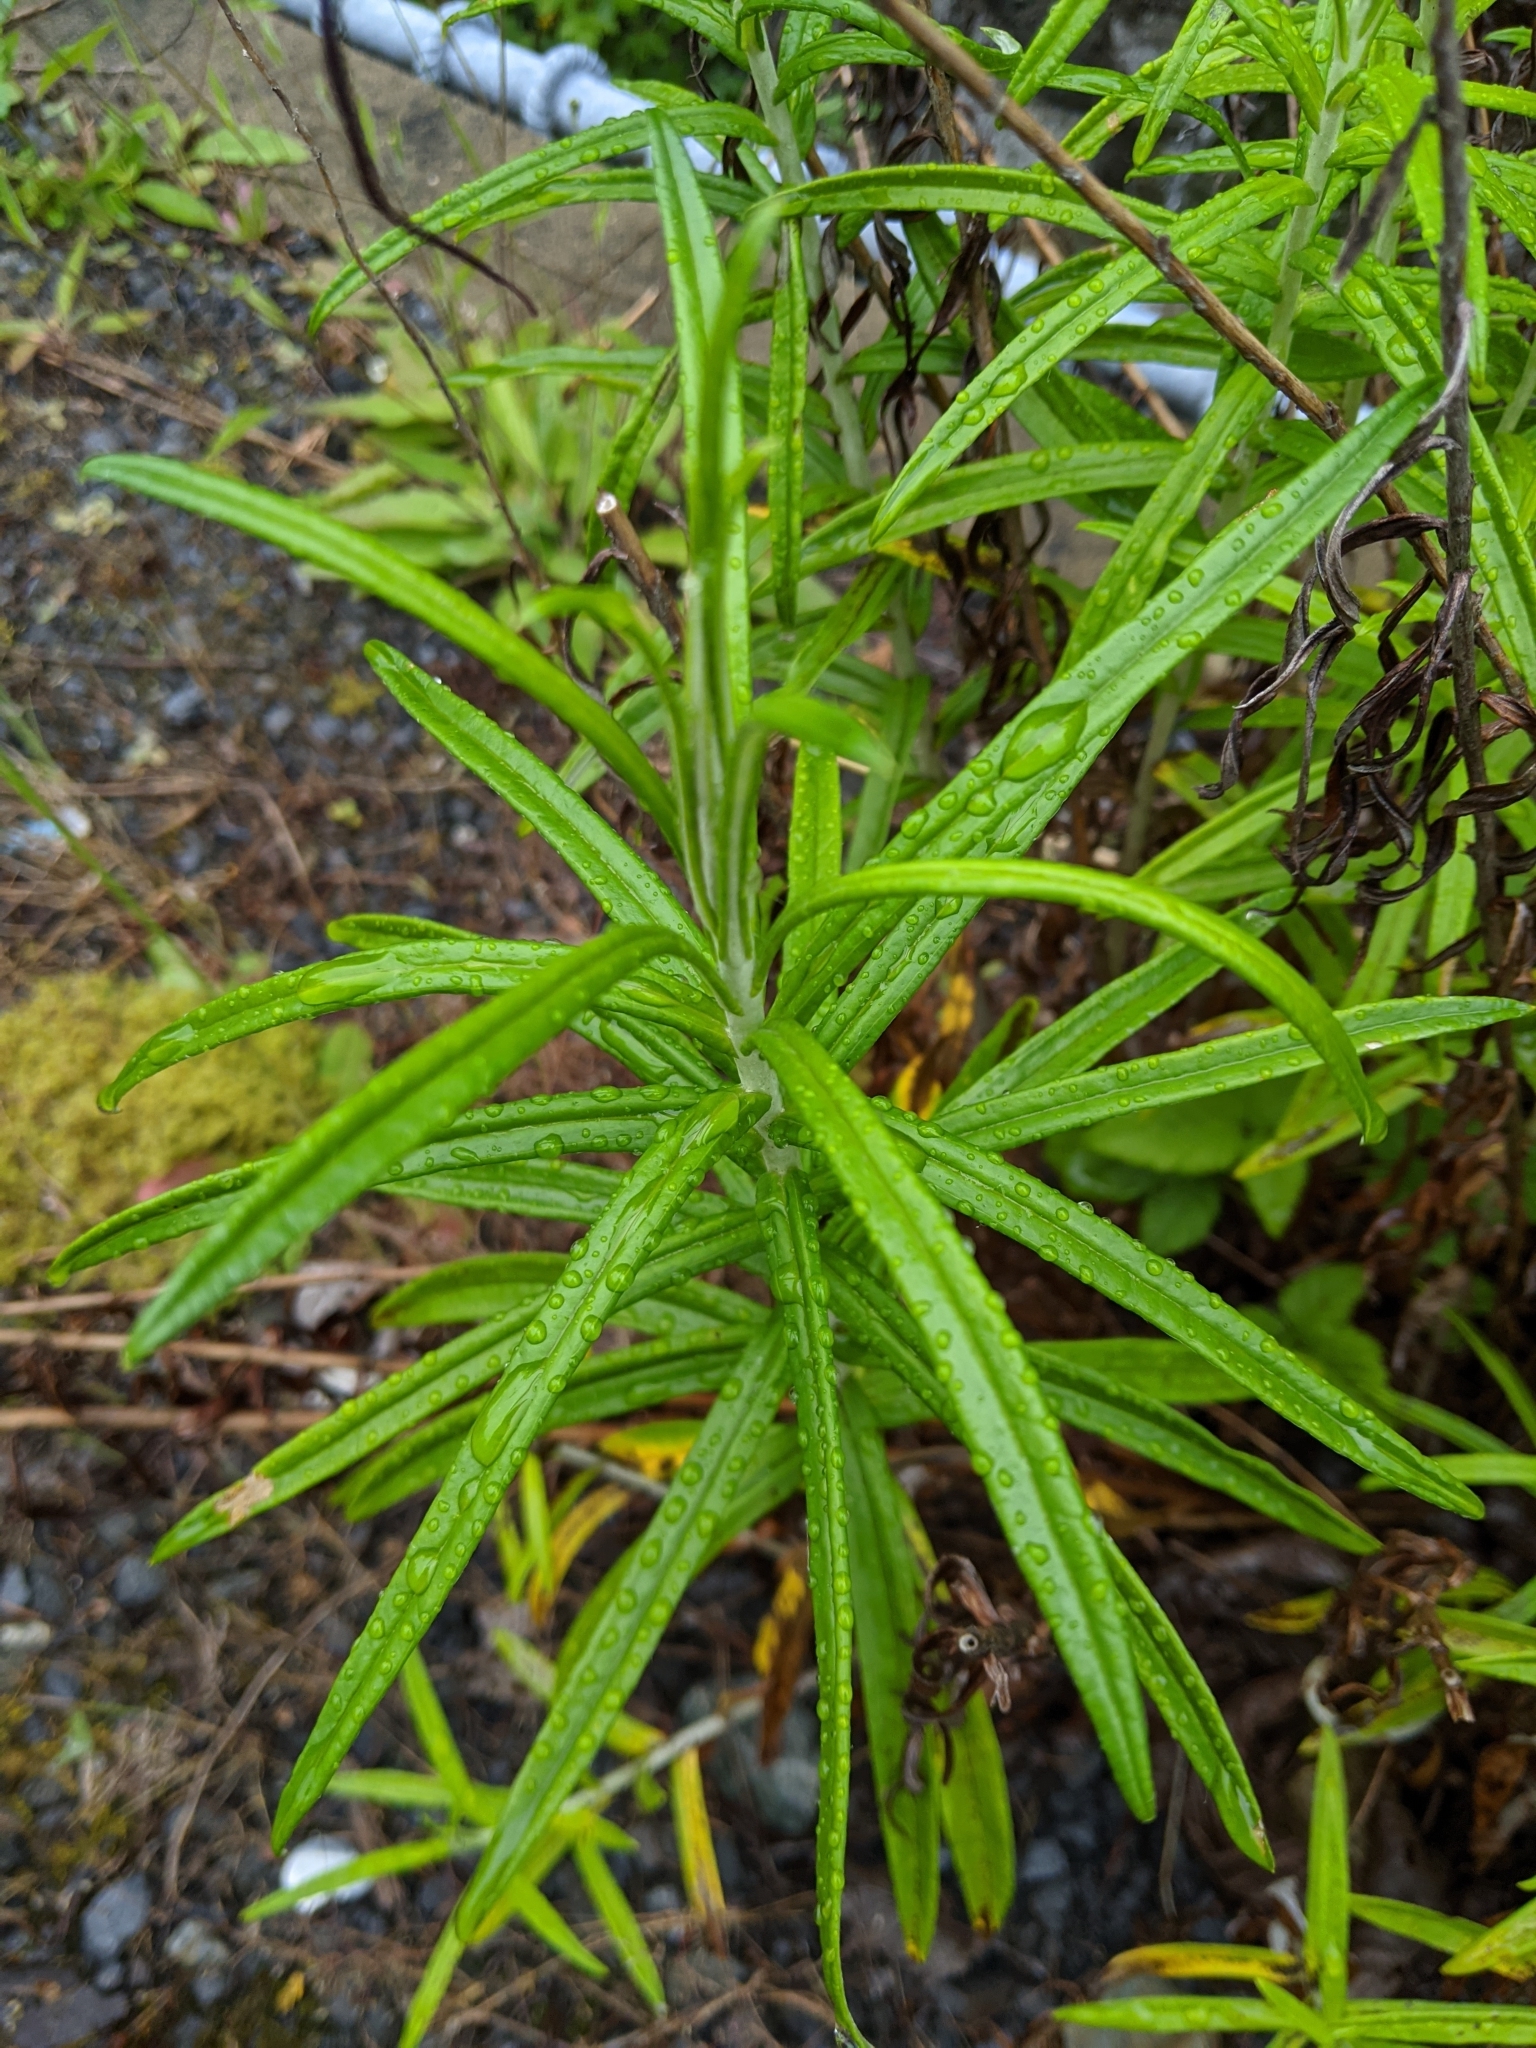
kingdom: Plantae
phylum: Tracheophyta
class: Magnoliopsida
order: Asterales
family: Asteraceae
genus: Anaphalis
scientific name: Anaphalis margaritacea
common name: Pearly everlasting
